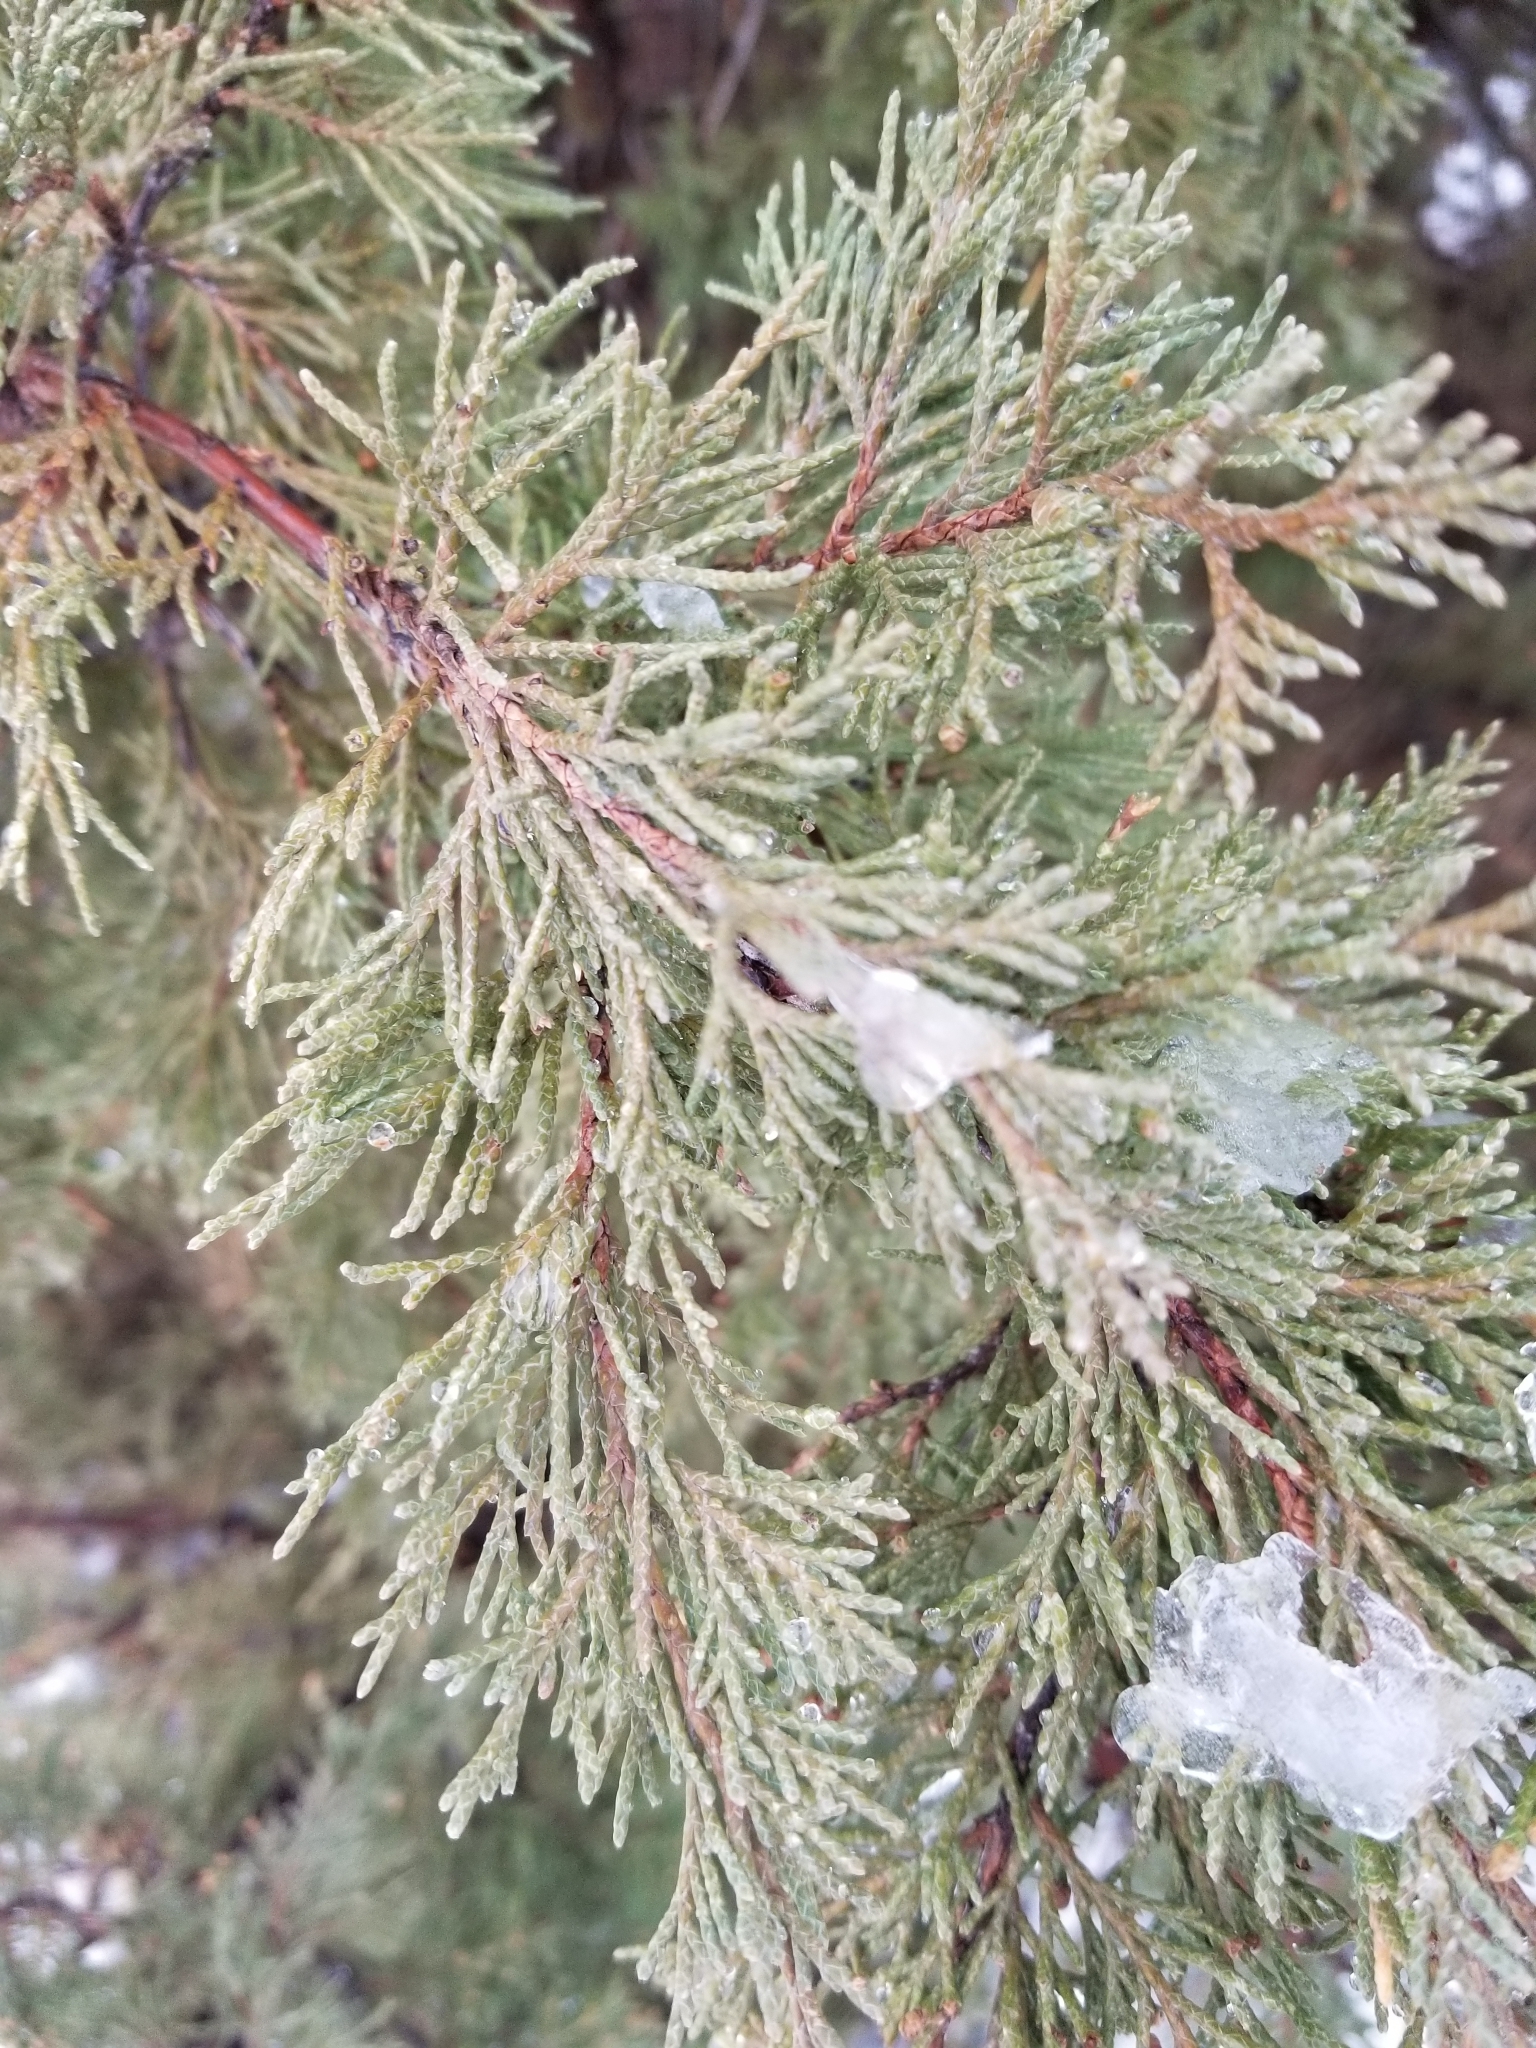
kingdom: Plantae
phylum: Tracheophyta
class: Pinopsida
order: Pinales
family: Cupressaceae
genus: Juniperus
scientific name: Juniperus scopulorum
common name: Rocky mountain juniper
